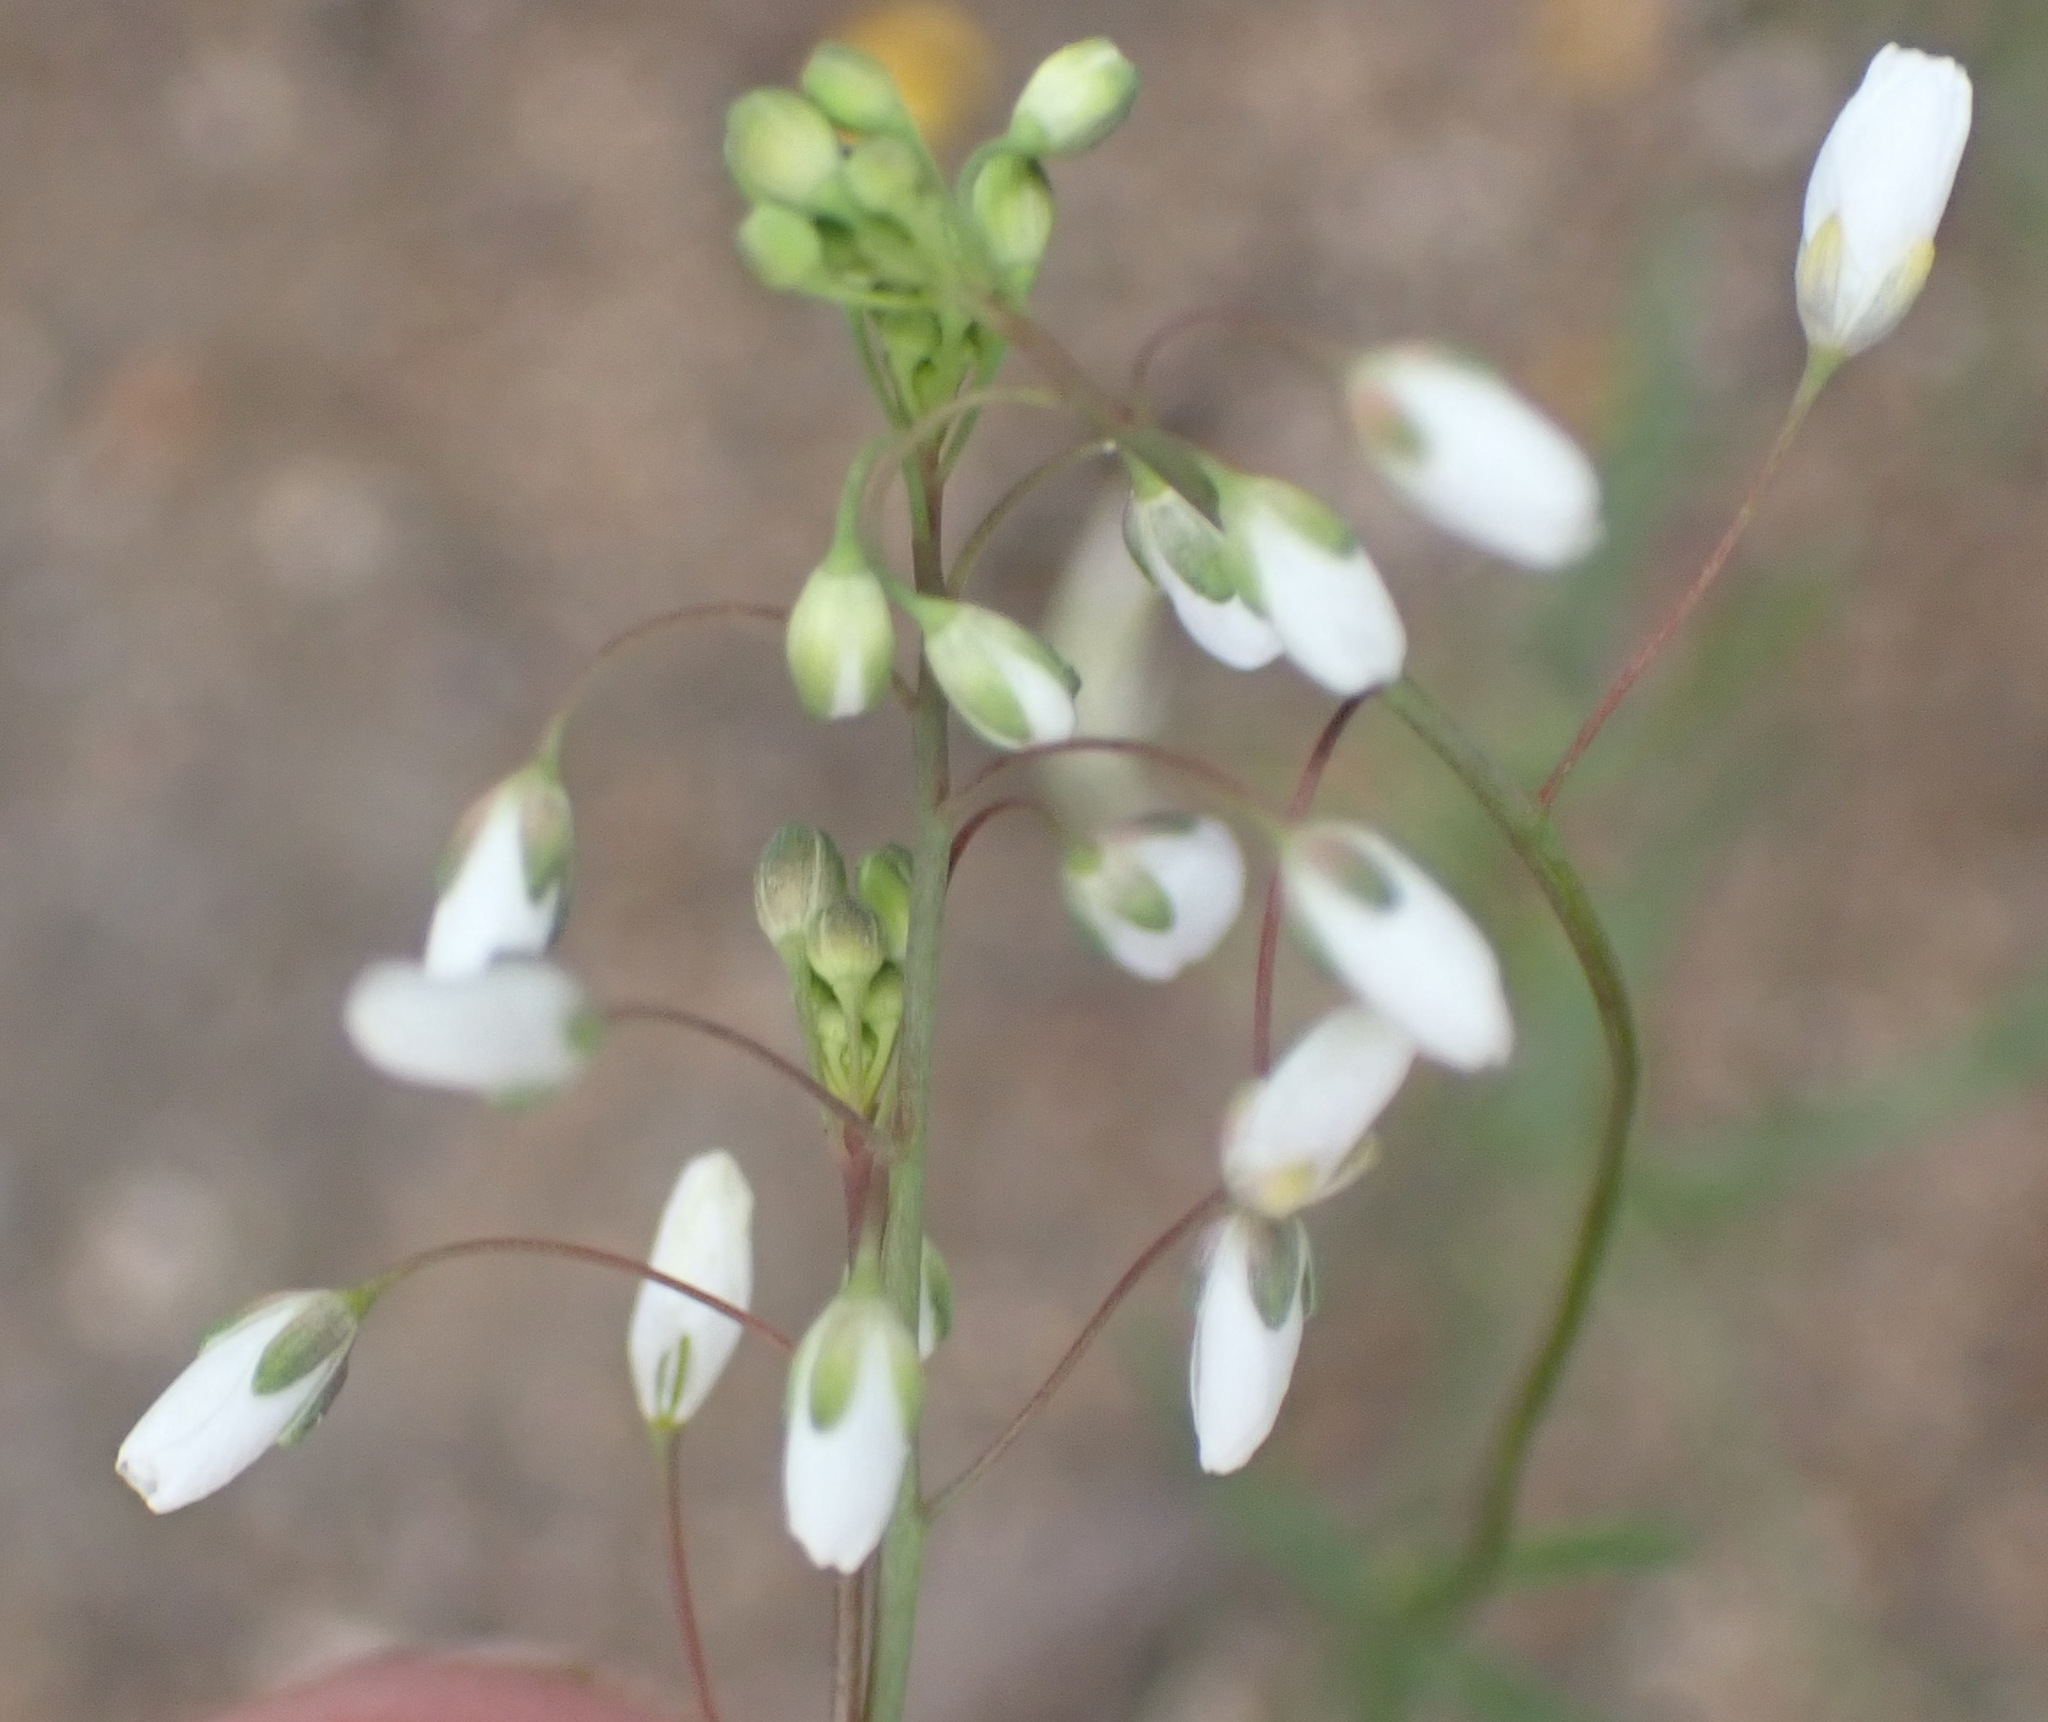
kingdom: Plantae
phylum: Tracheophyta
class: Magnoliopsida
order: Brassicales
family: Brassicaceae
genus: Heliophila
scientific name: Heliophila pusilla
